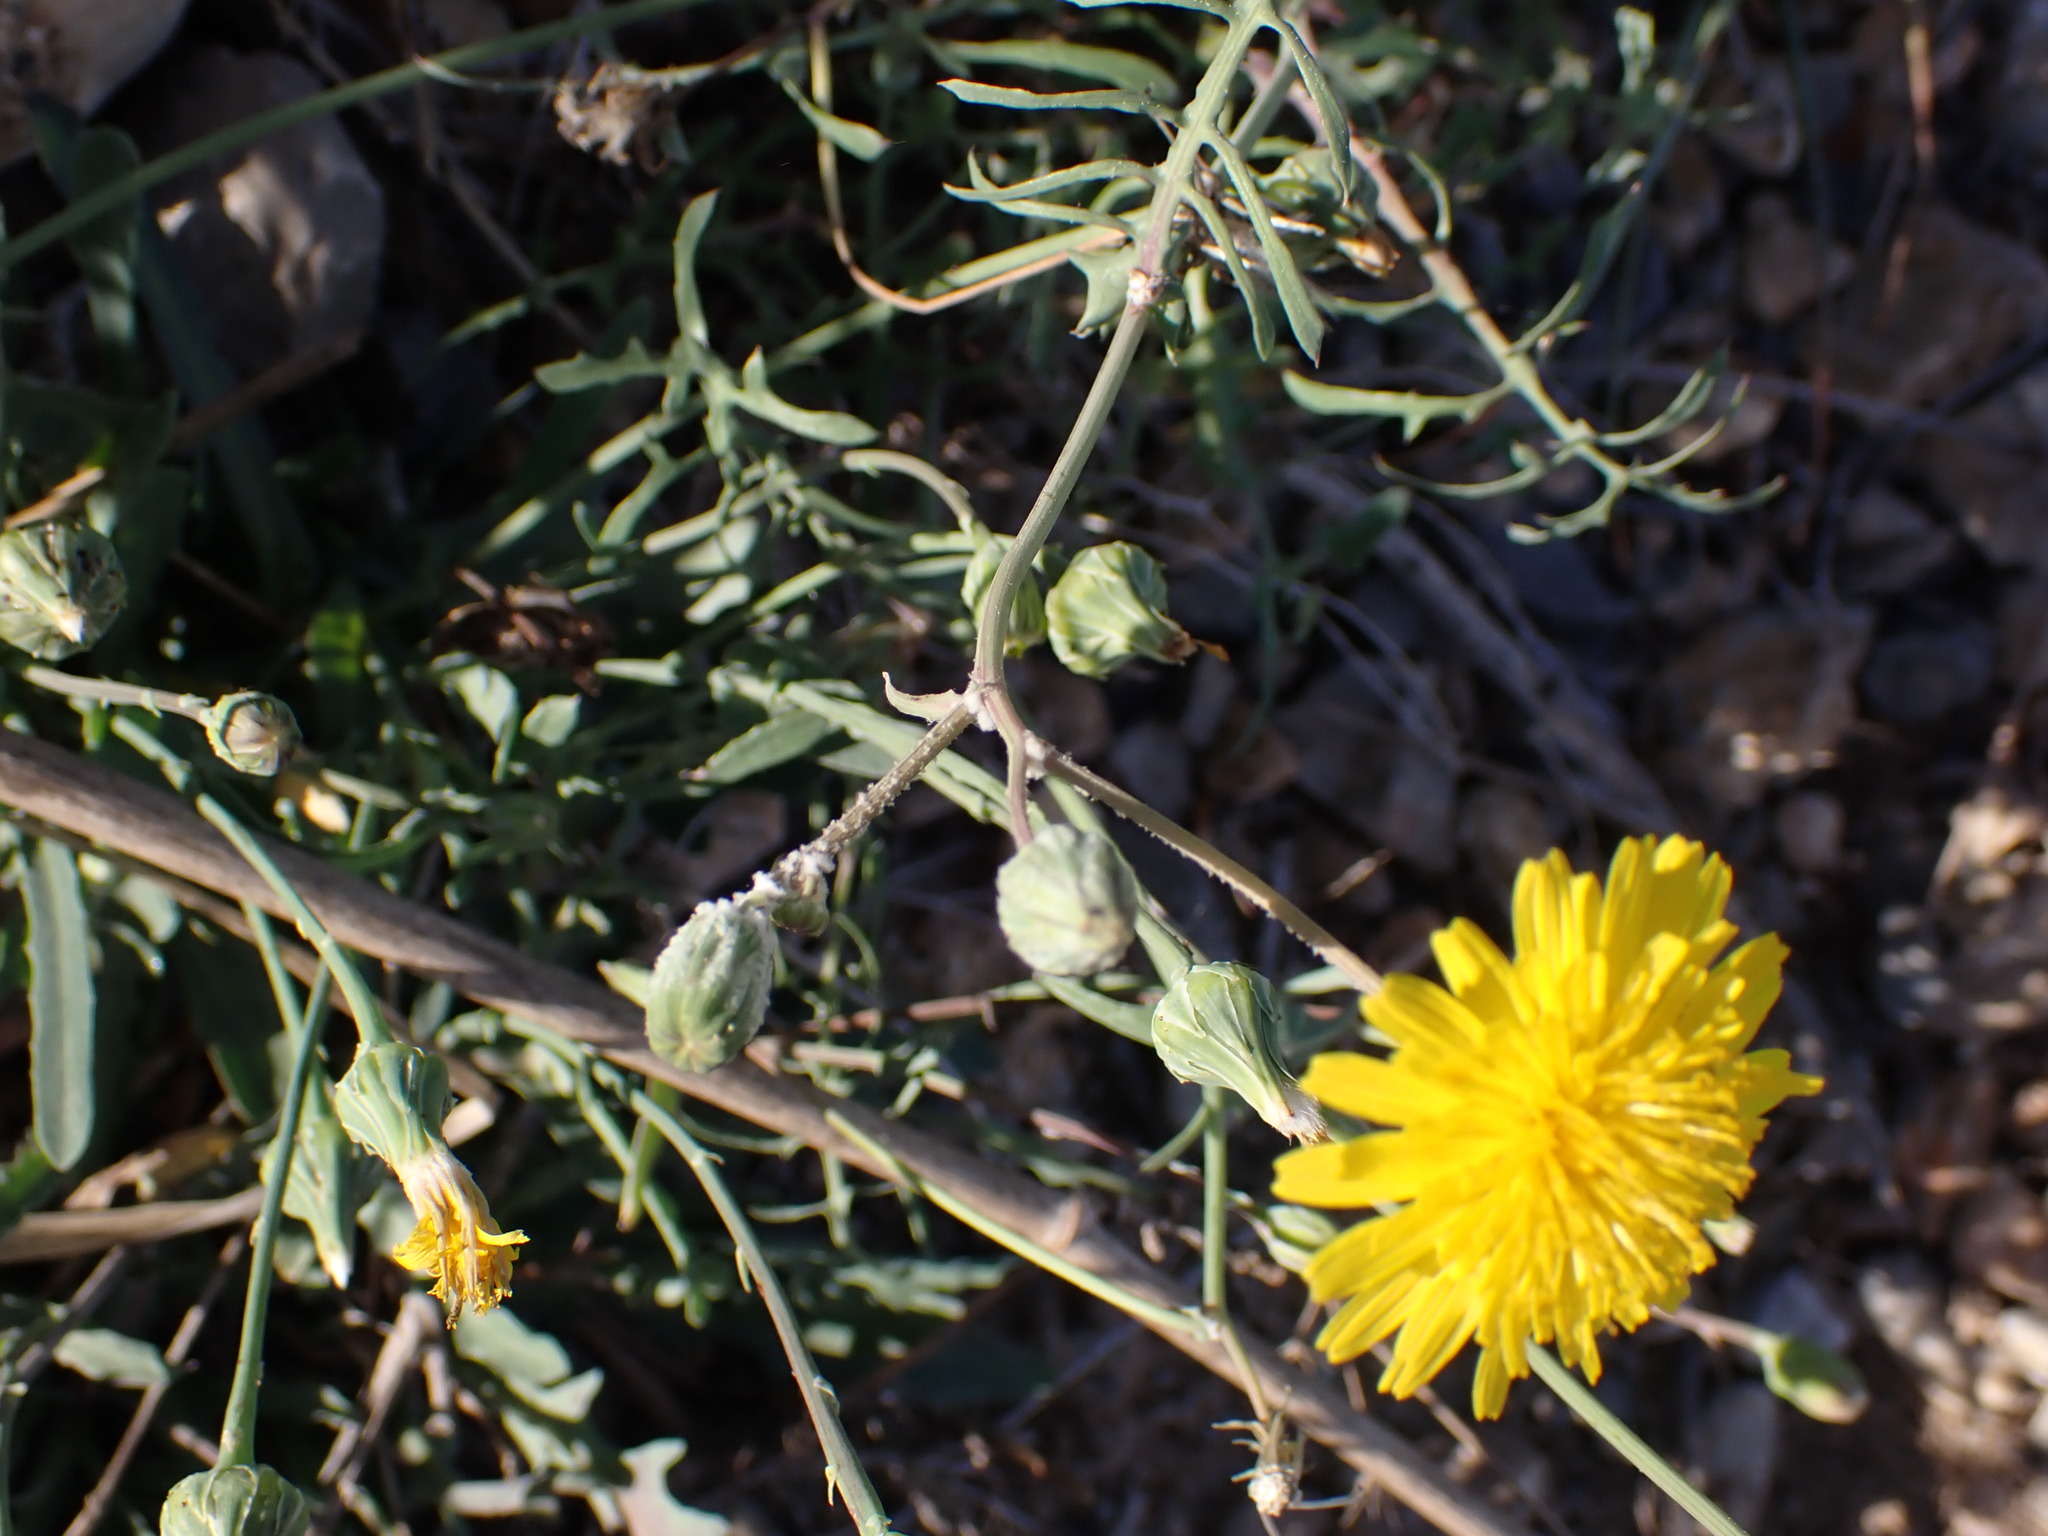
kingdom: Plantae
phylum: Tracheophyta
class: Magnoliopsida
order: Asterales
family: Asteraceae
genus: Sonchus
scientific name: Sonchus tenerrimus
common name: Clammy sowthistle
